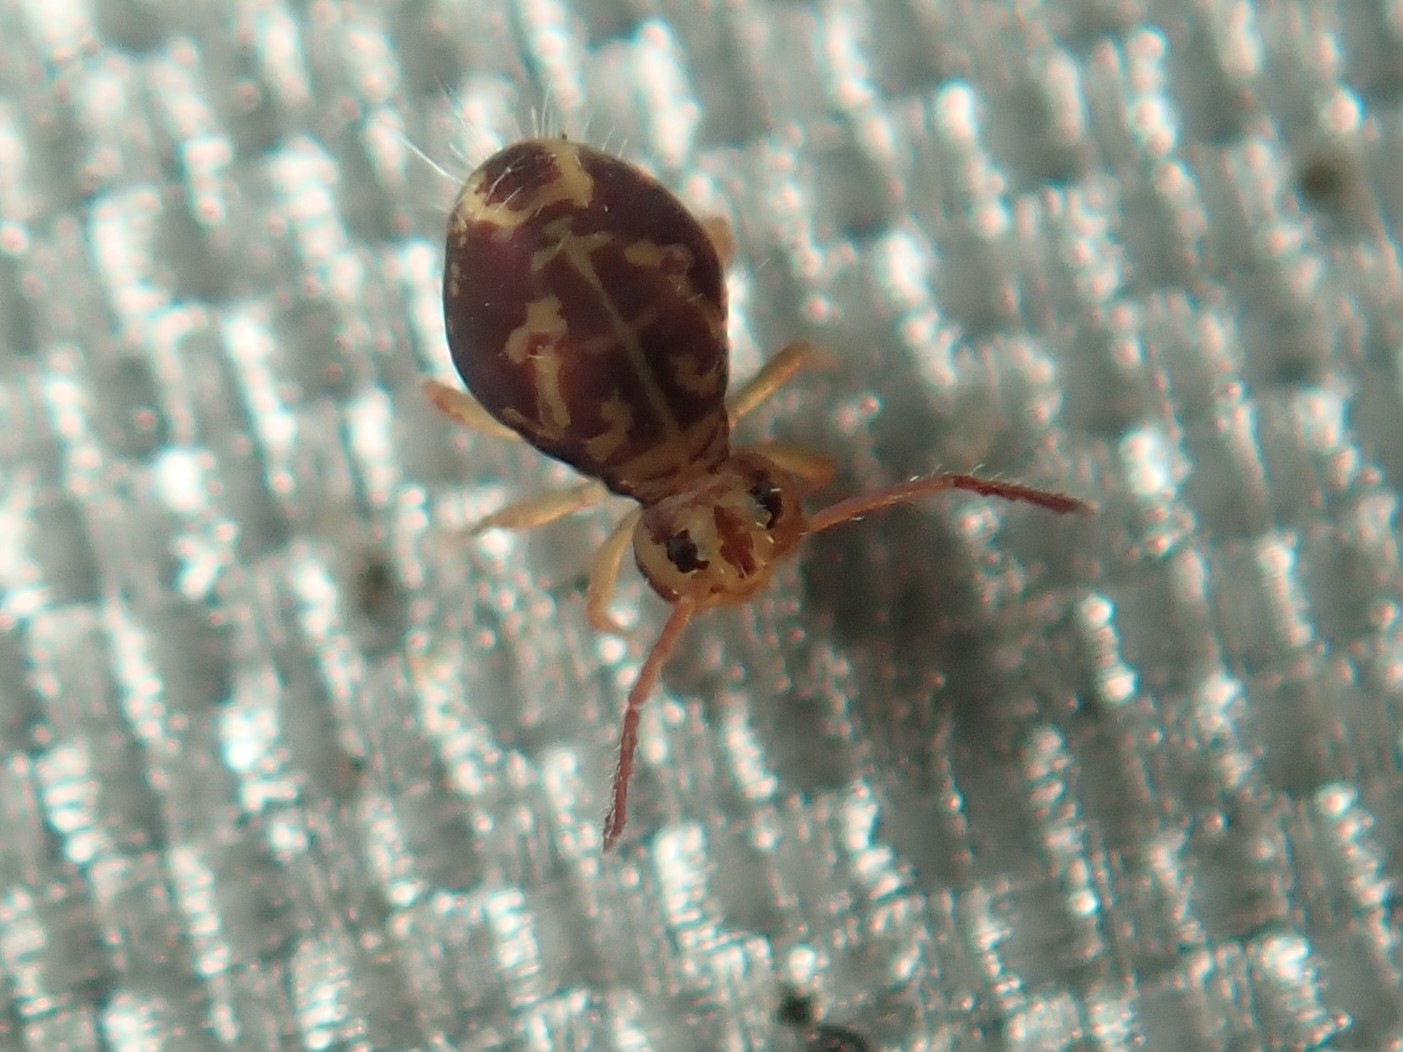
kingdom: Animalia
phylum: Arthropoda
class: Collembola
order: Symphypleona
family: Dicyrtomidae
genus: Dicyrtomina
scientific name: Dicyrtomina ornata
